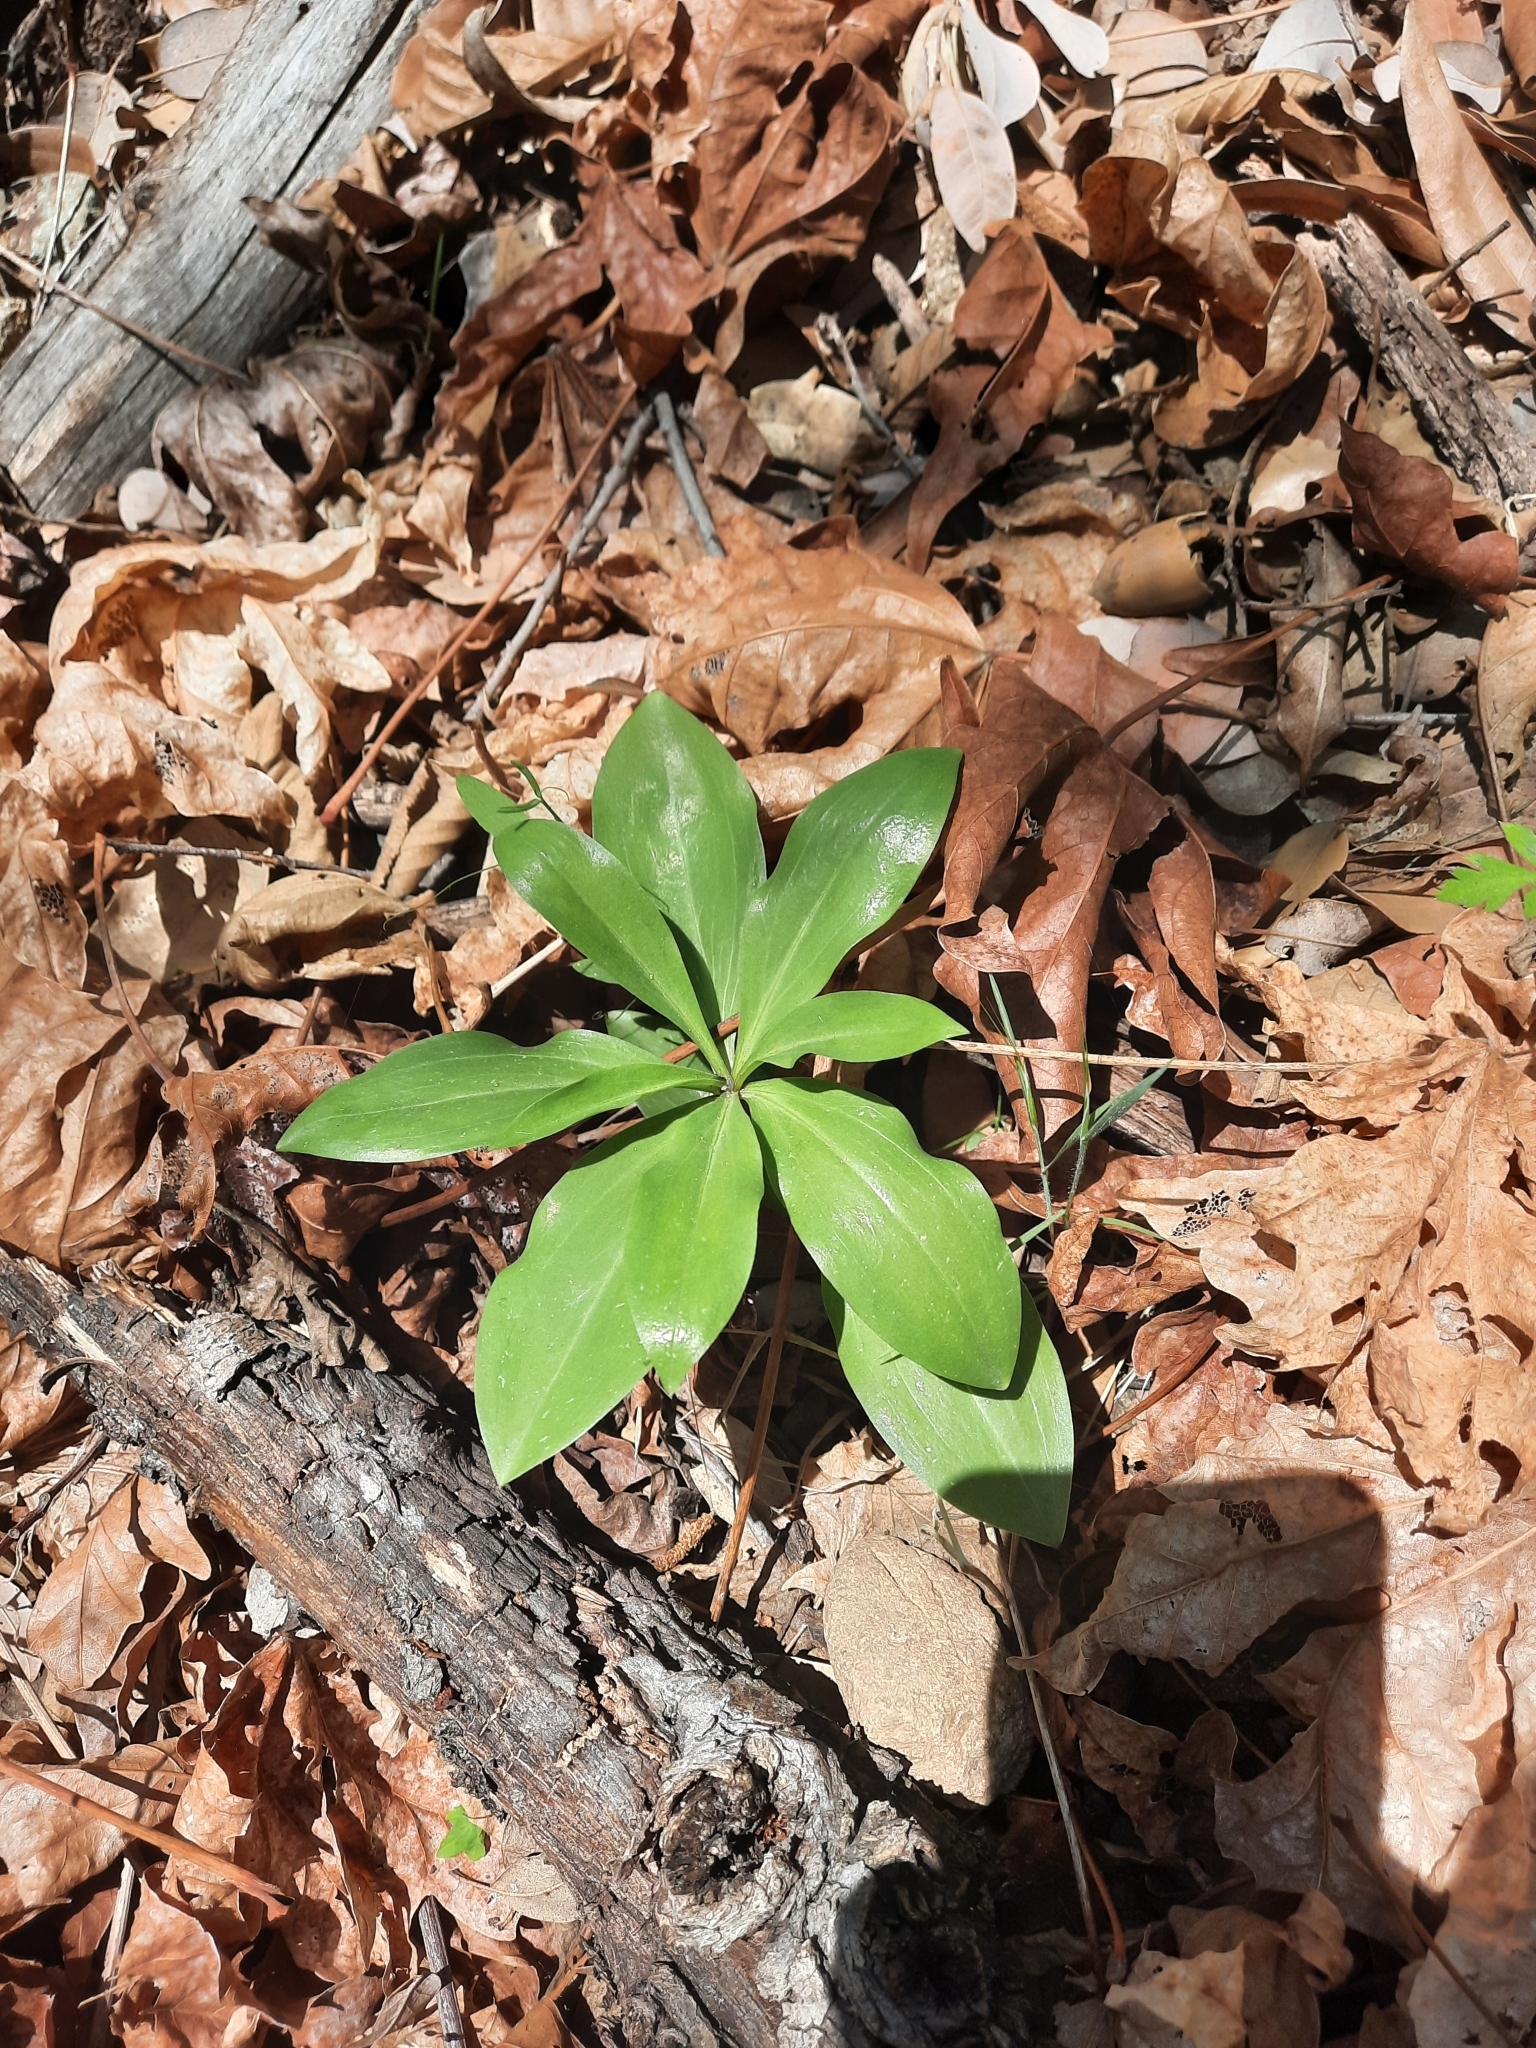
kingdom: Plantae
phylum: Tracheophyta
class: Liliopsida
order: Liliales
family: Liliaceae
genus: Lilium
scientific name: Lilium humboldtii
